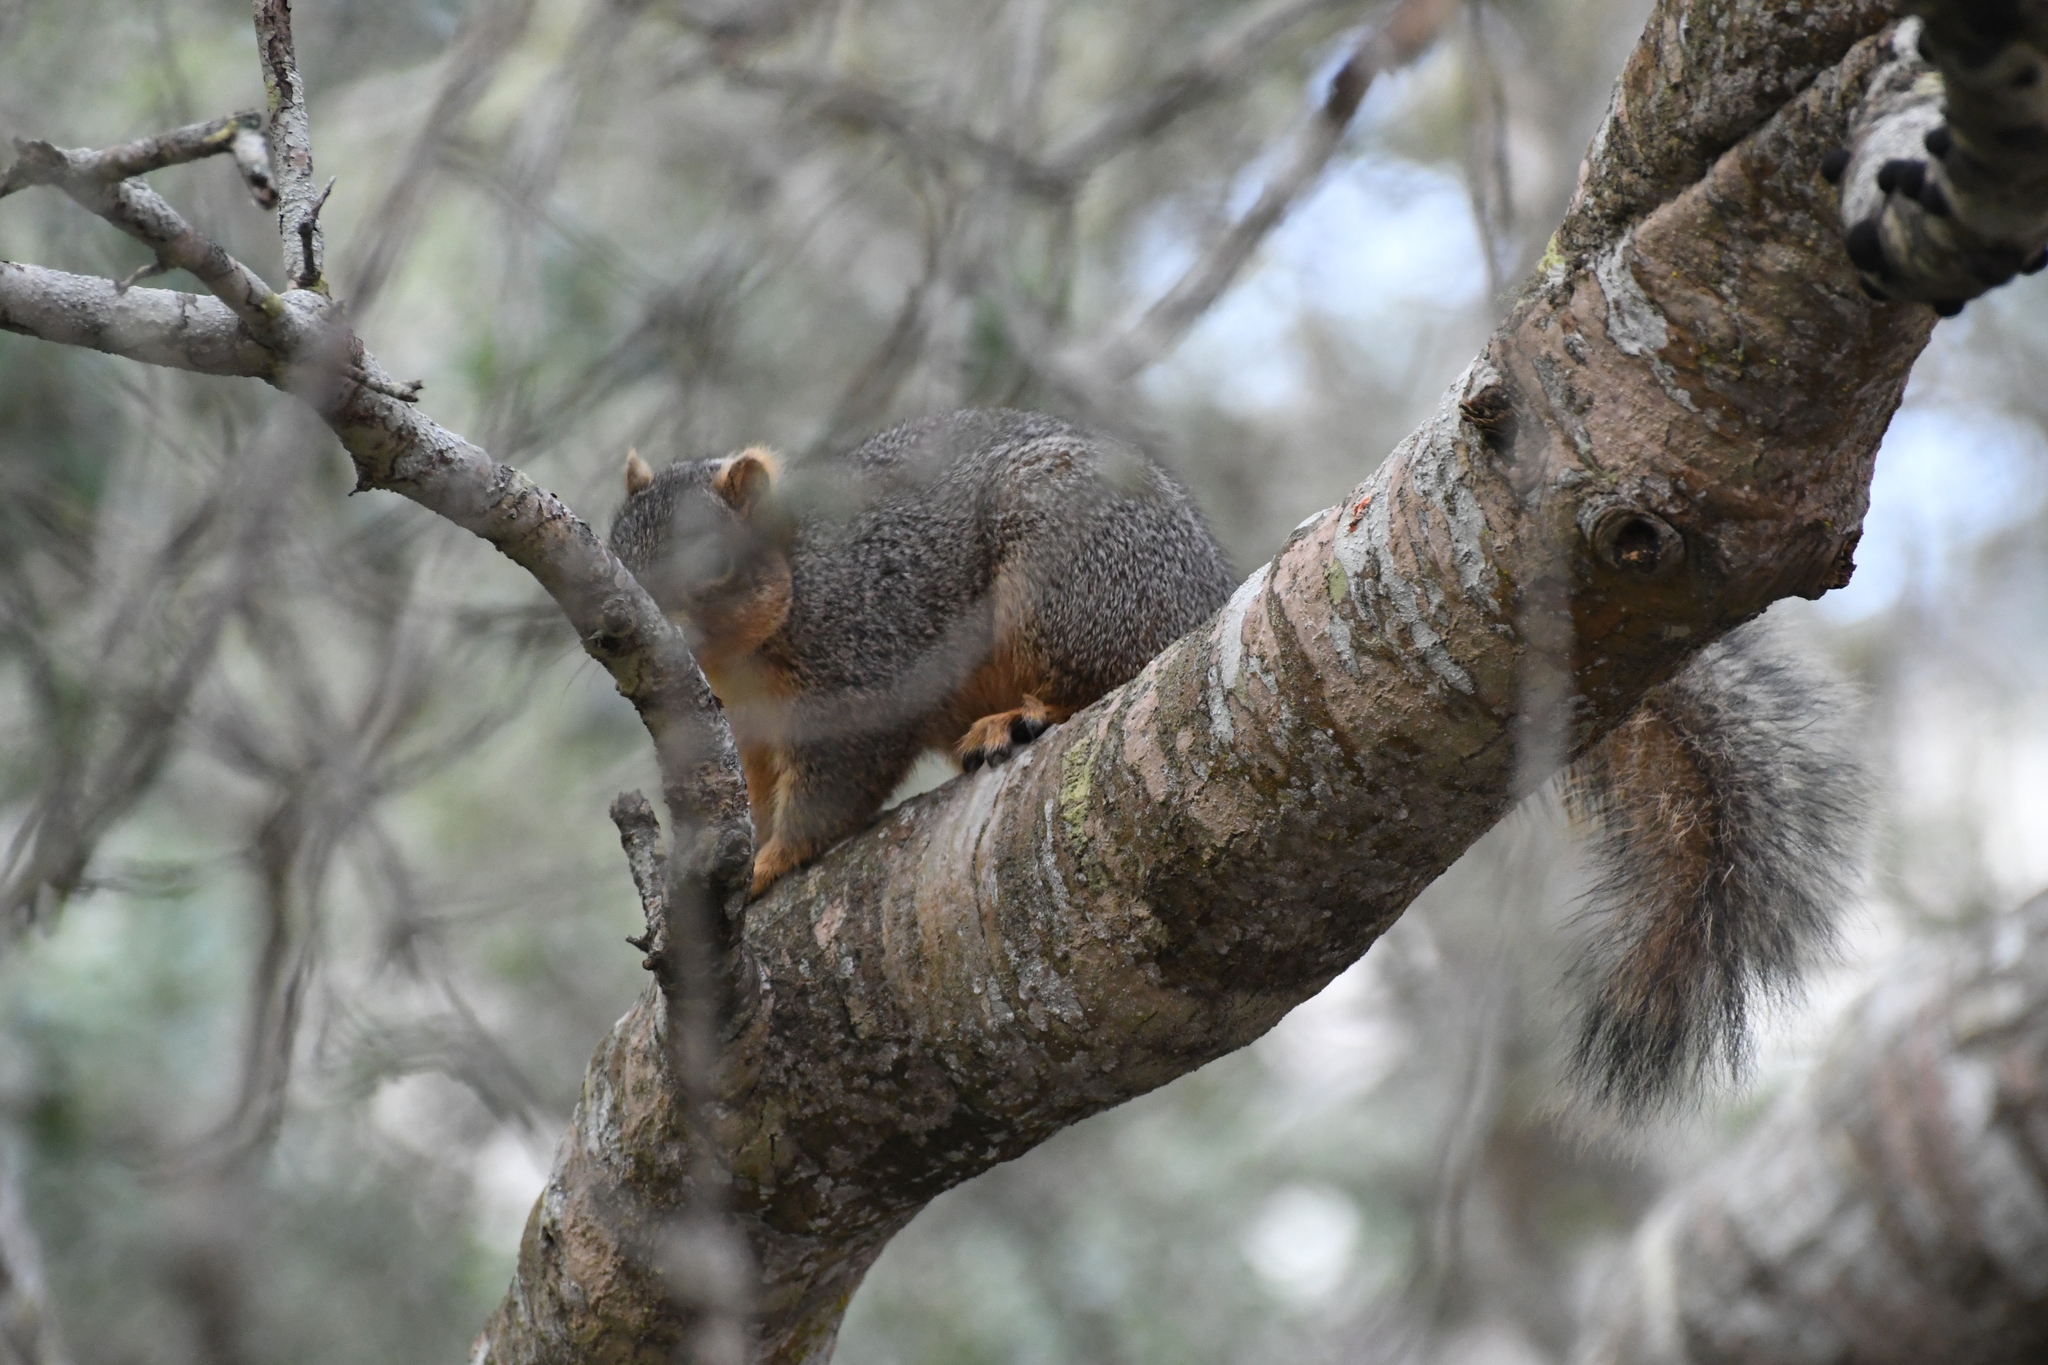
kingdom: Animalia
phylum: Chordata
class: Mammalia
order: Rodentia
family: Sciuridae
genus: Sciurus
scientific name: Sciurus niger
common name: Fox squirrel
